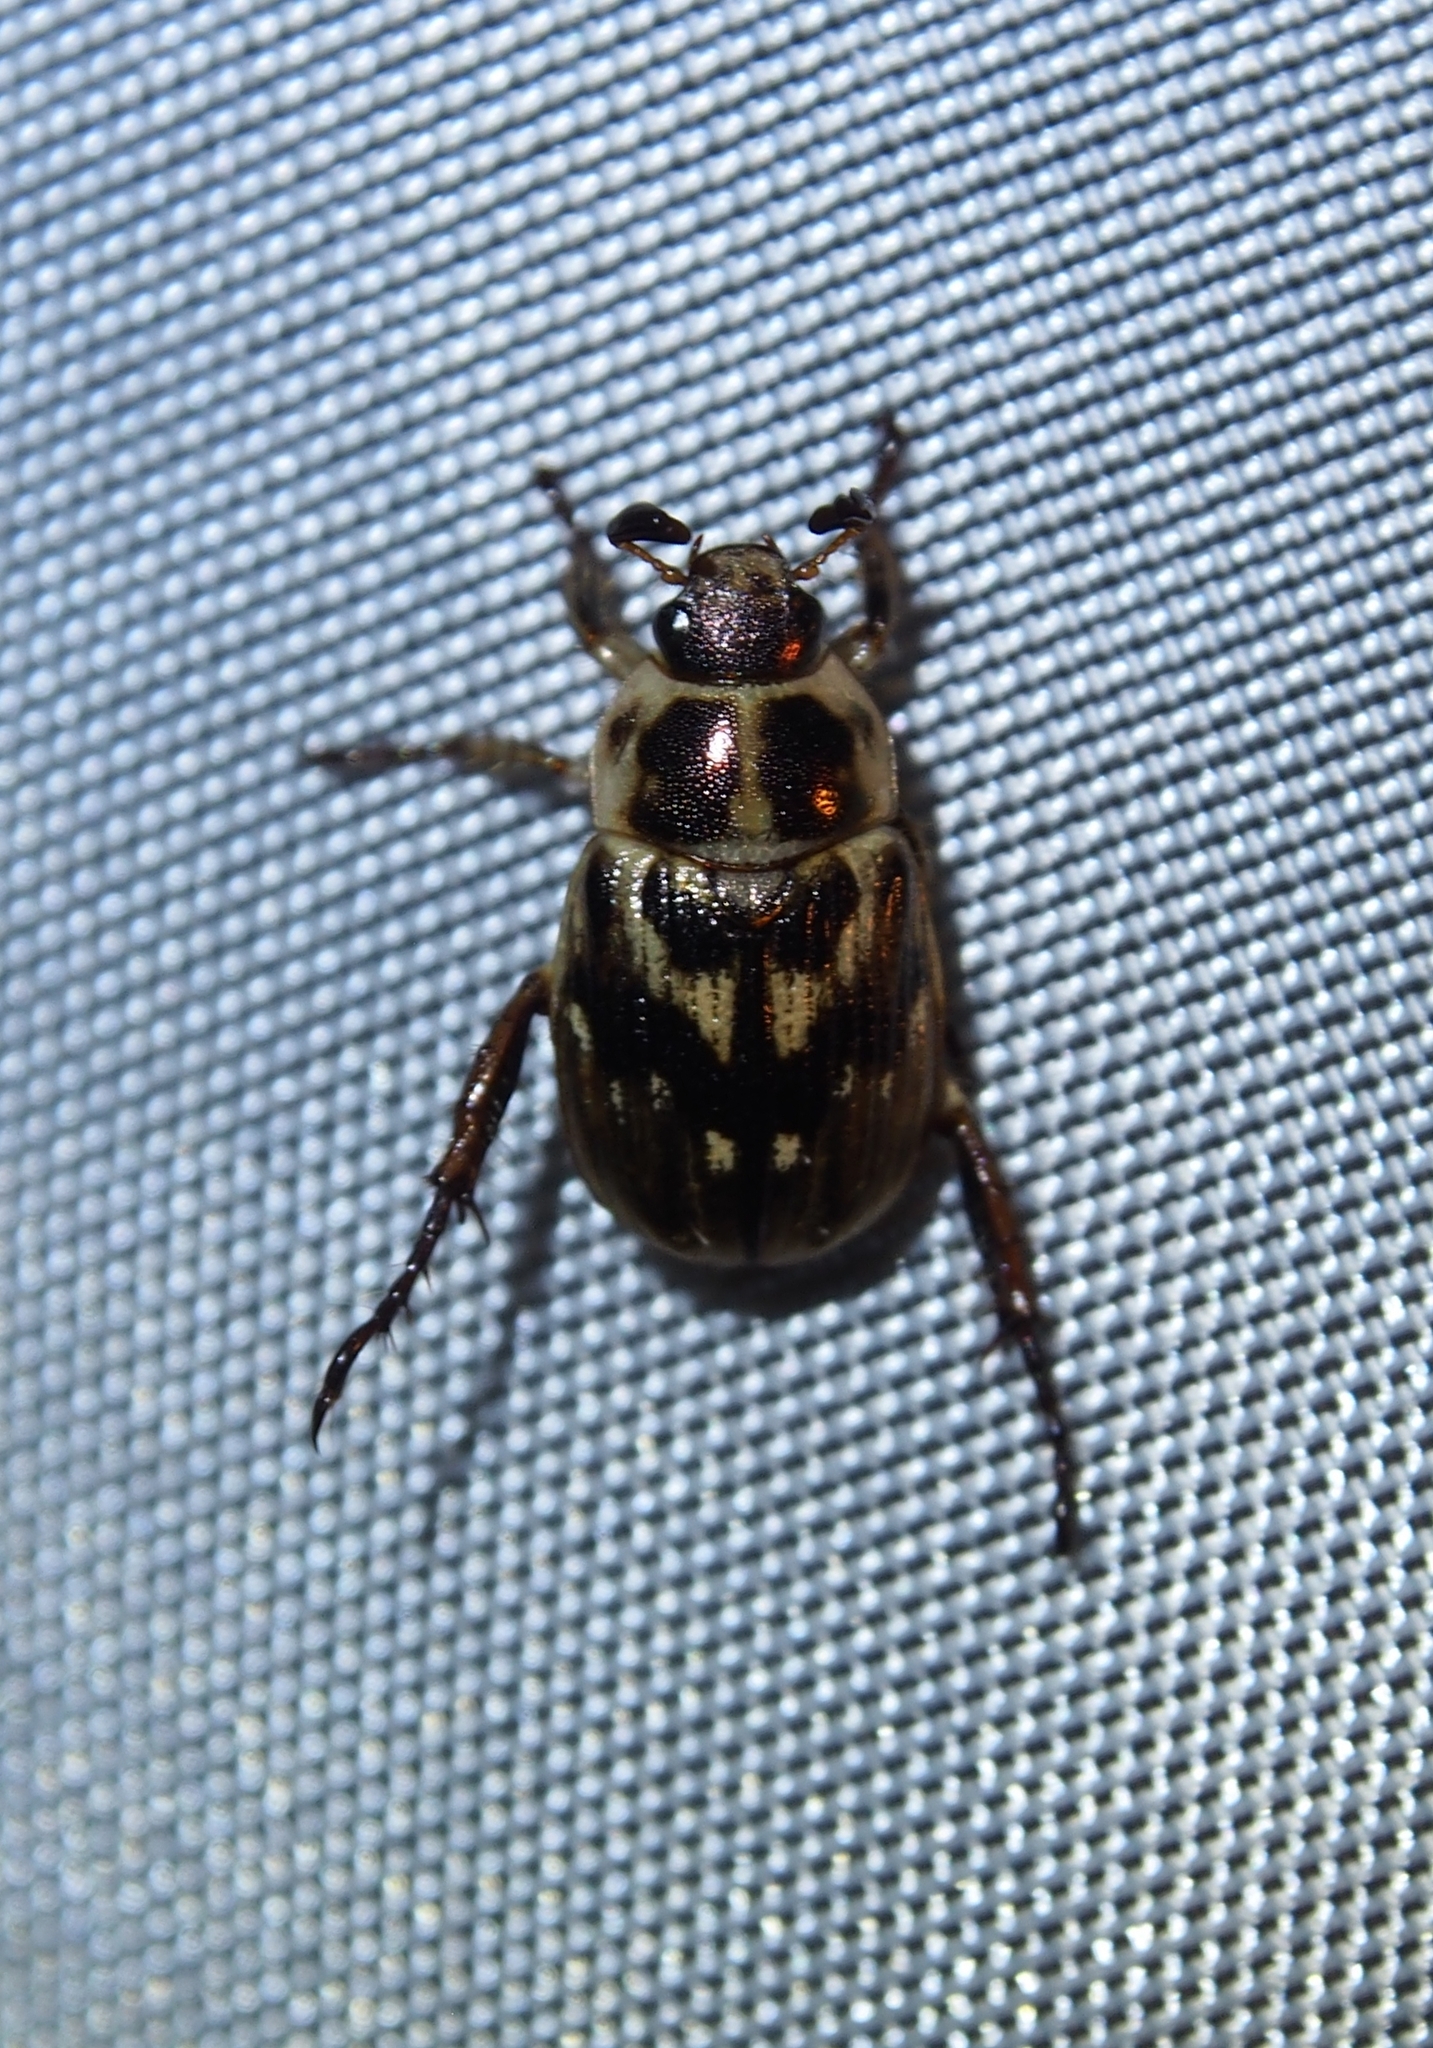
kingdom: Animalia
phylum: Arthropoda
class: Insecta
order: Coleoptera
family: Scarabaeidae
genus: Exomala
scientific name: Exomala orientalis
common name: Oriental beetle
